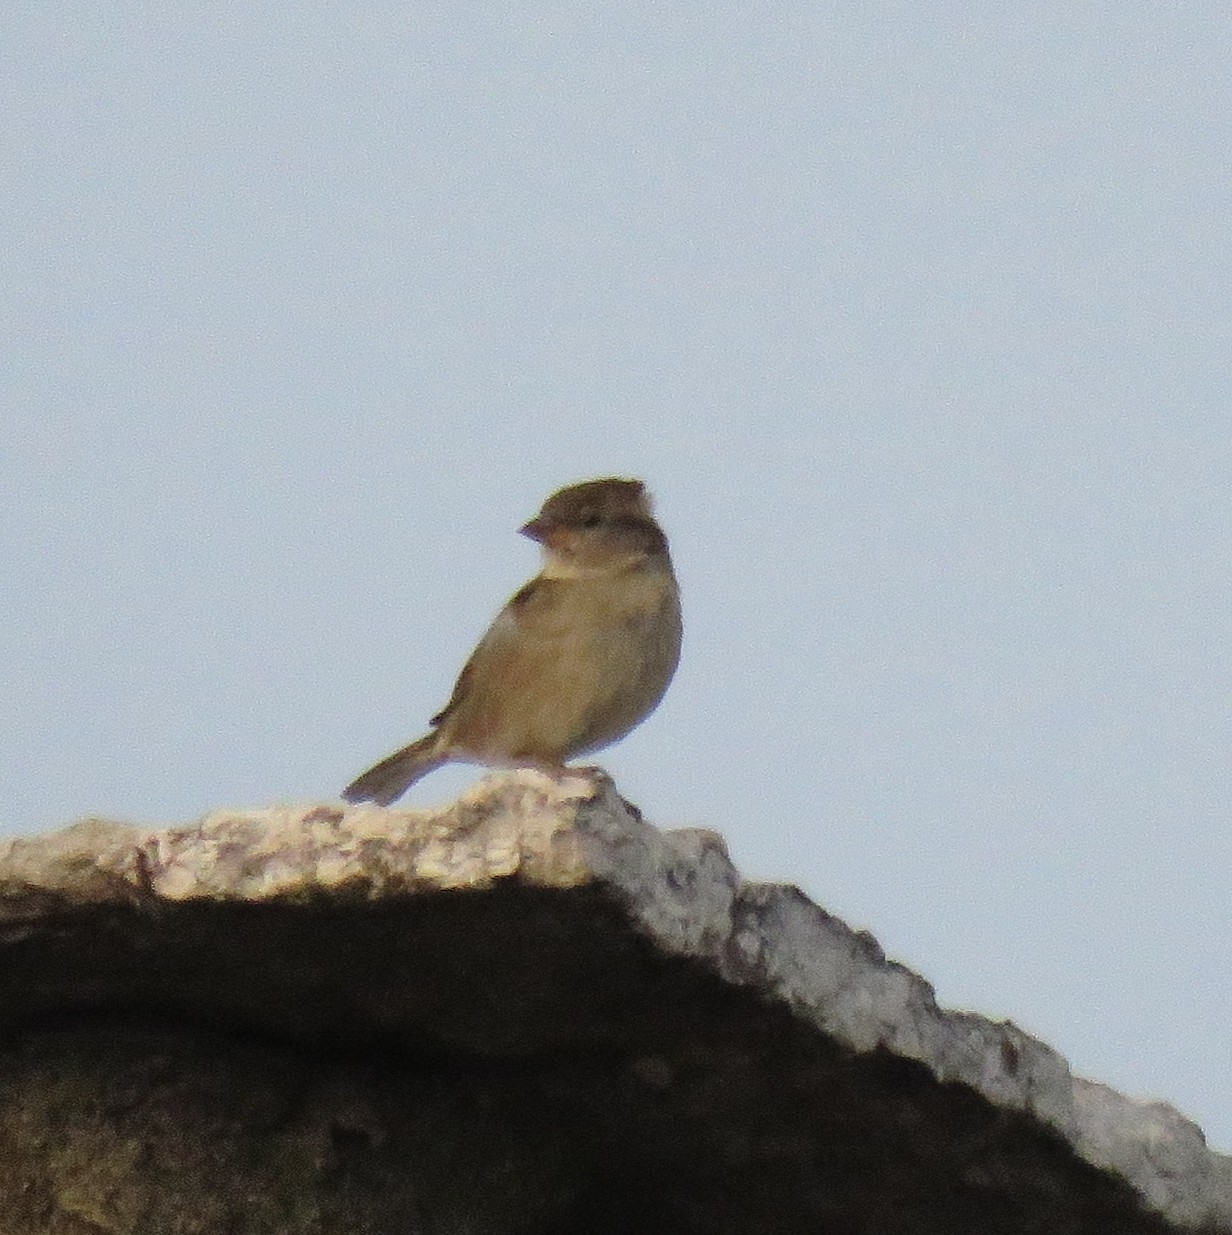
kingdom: Animalia
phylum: Chordata
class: Aves
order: Passeriformes
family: Passeridae
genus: Passer
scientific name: Passer italiae
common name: Italian sparrow
